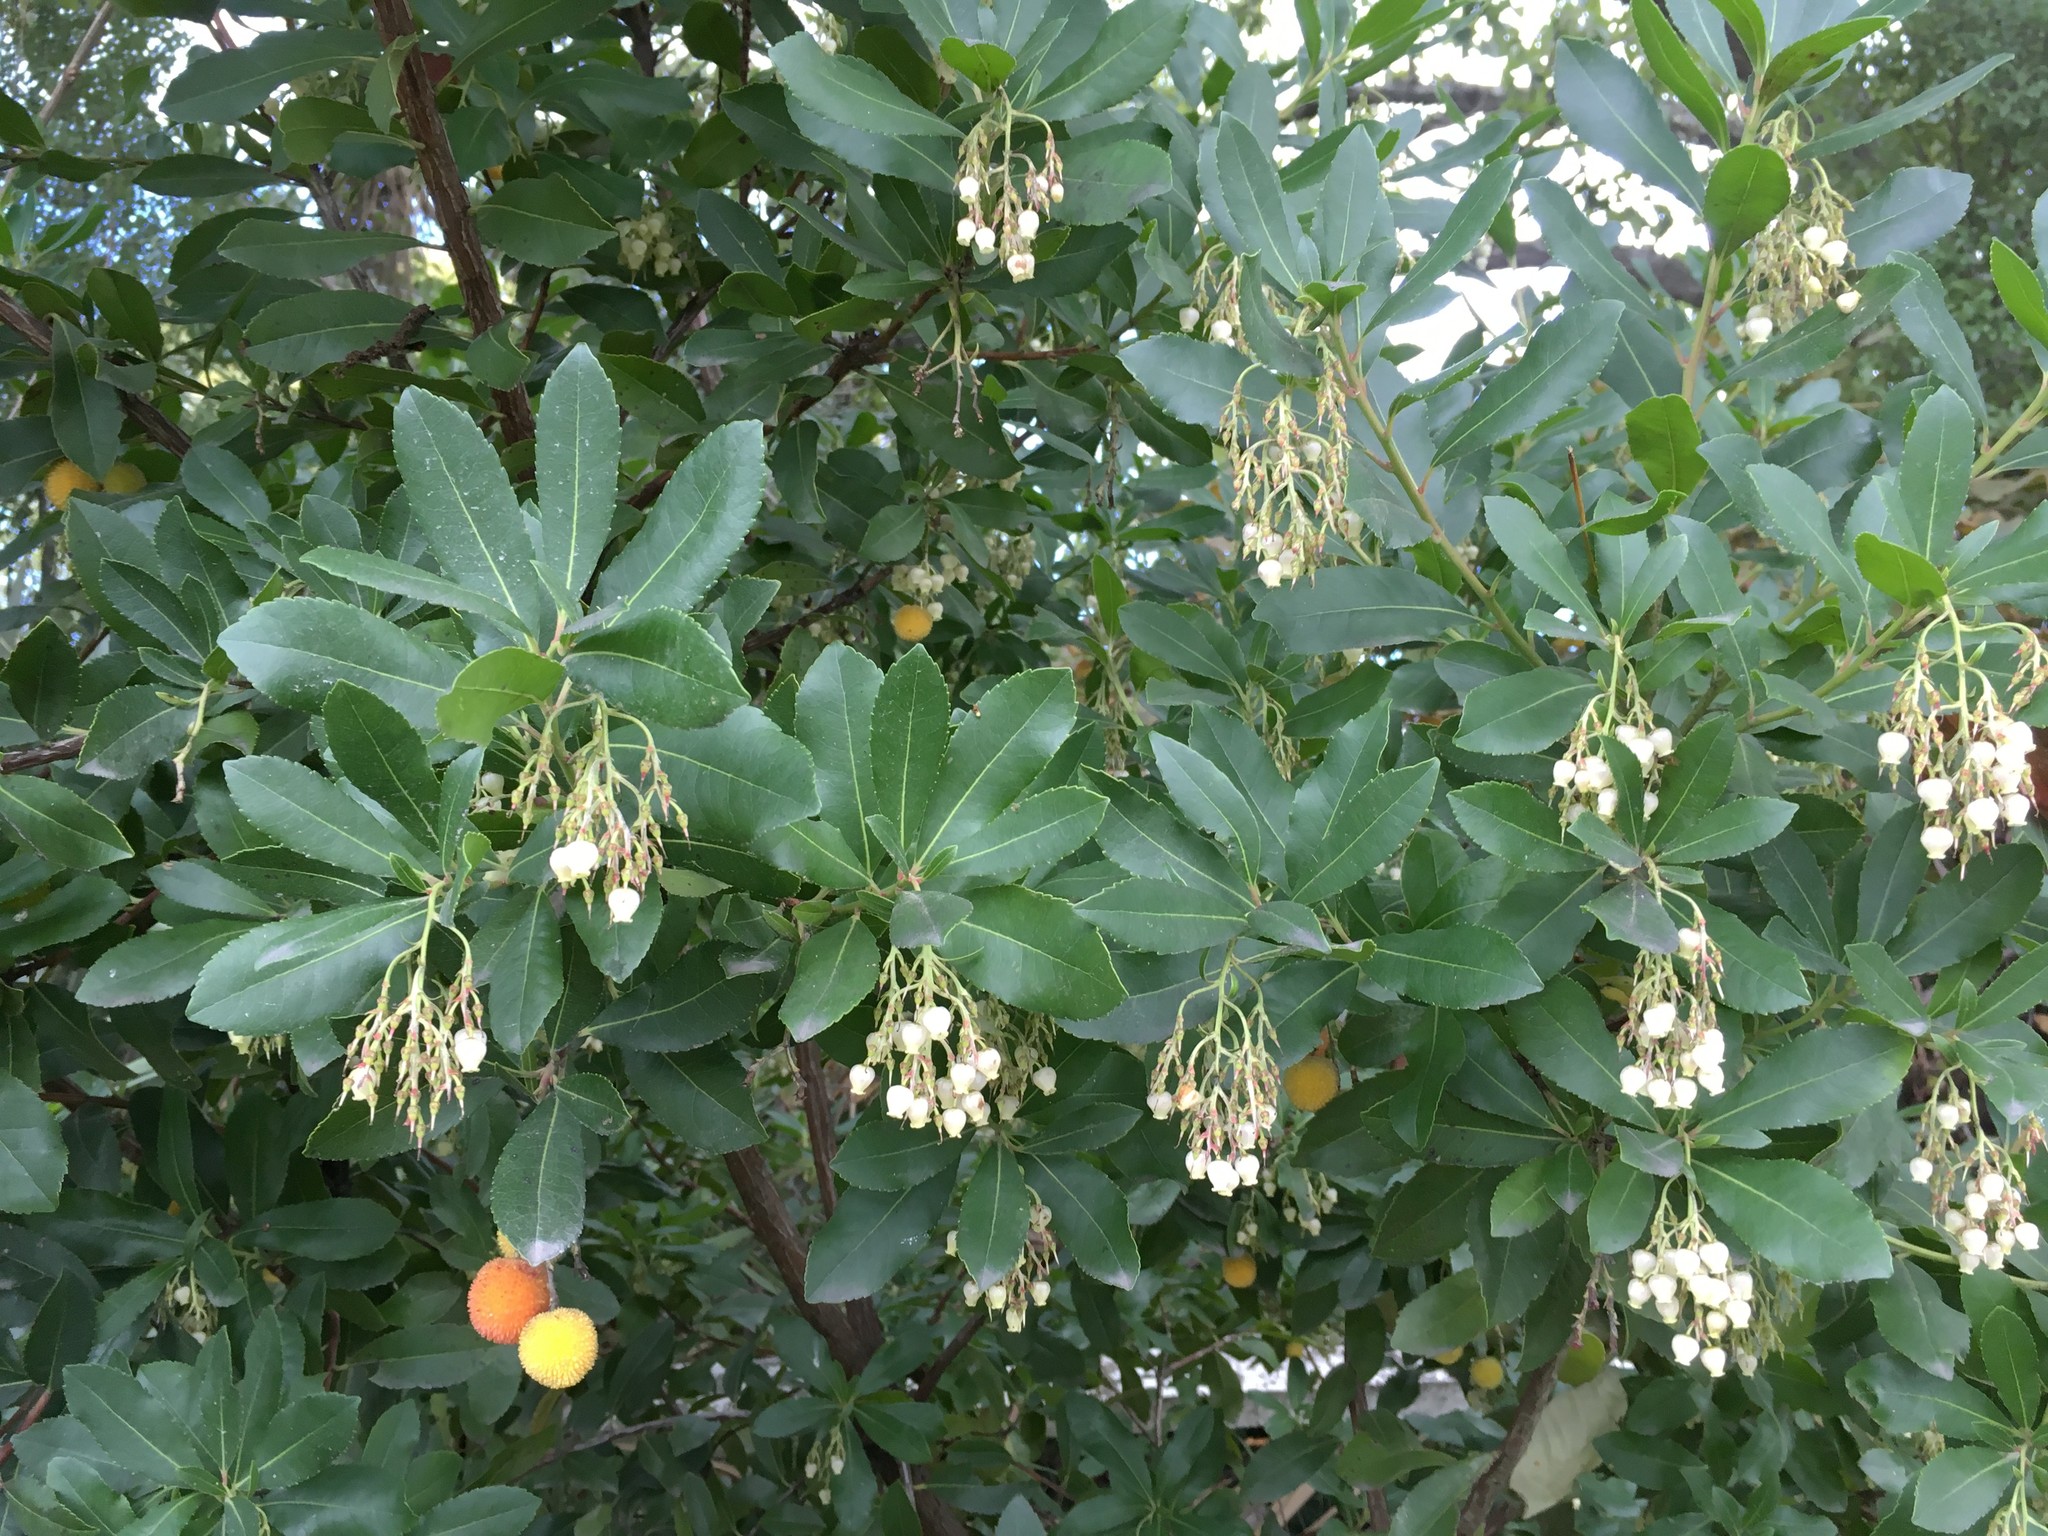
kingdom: Plantae
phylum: Tracheophyta
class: Magnoliopsida
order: Ericales
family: Ericaceae
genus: Arbutus
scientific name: Arbutus unedo
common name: Strawberry-tree
